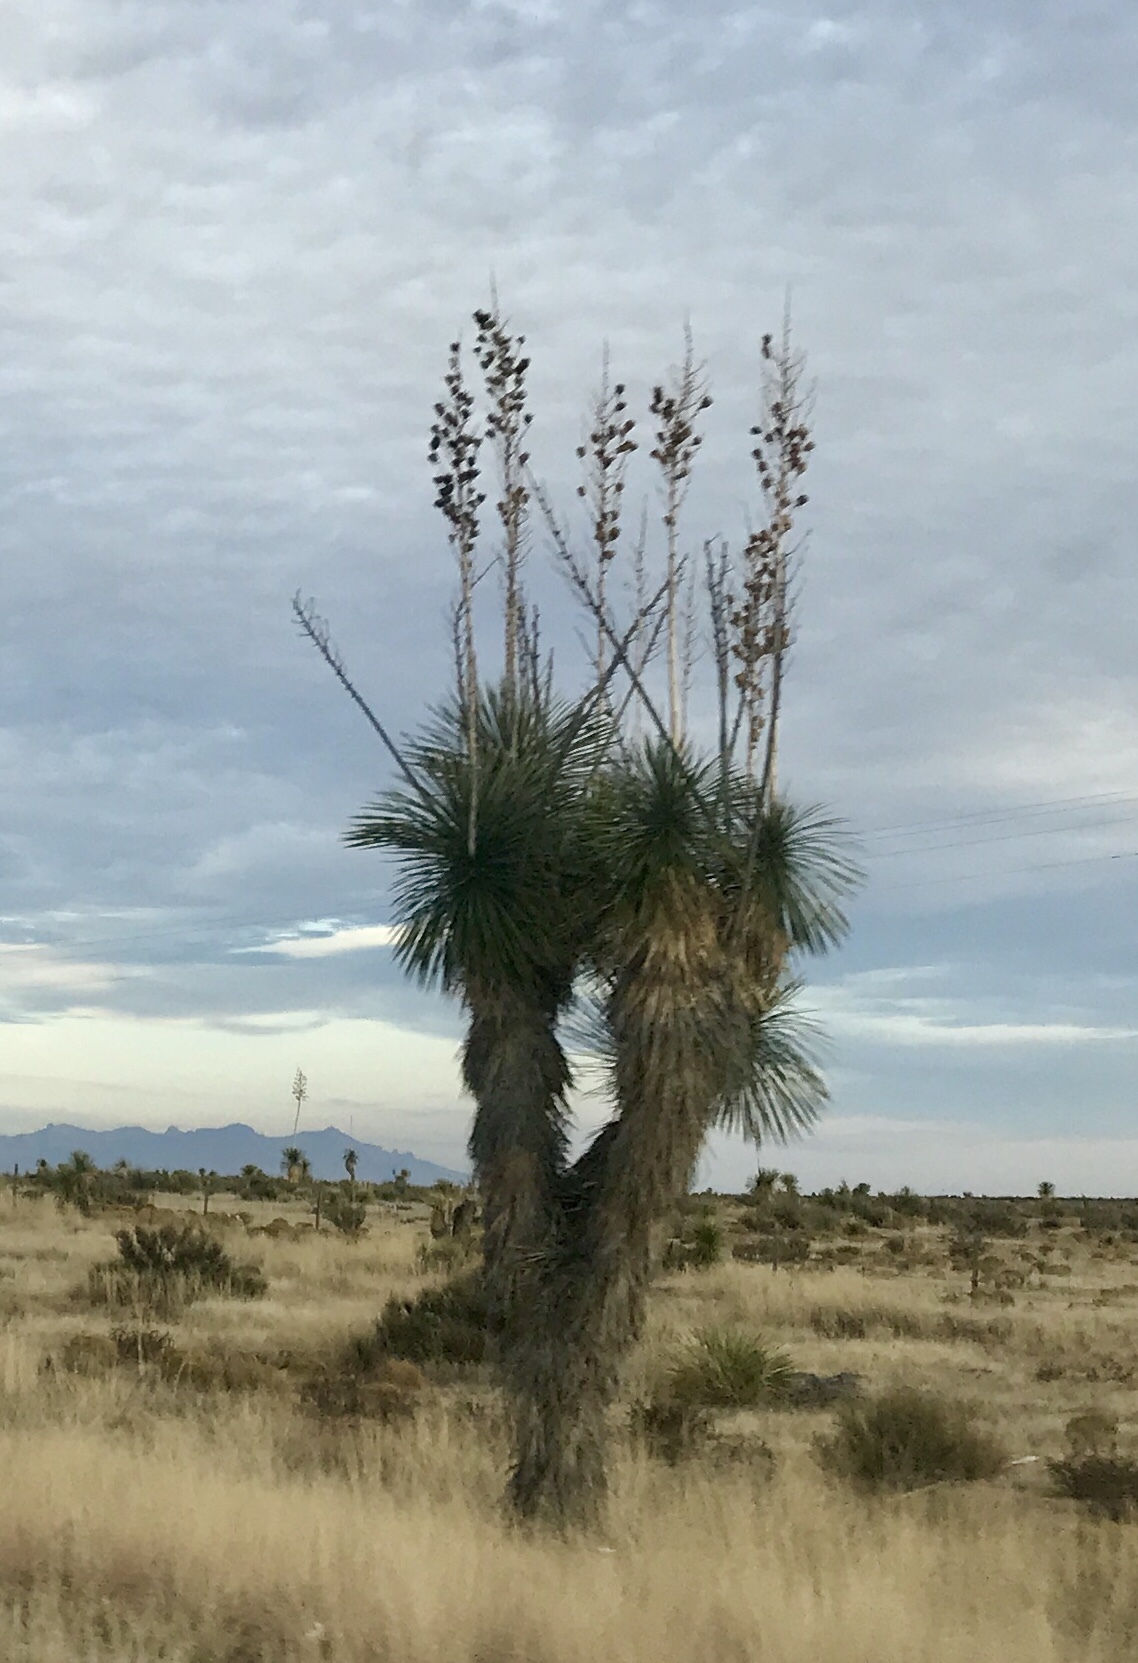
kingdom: Plantae
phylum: Tracheophyta
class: Liliopsida
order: Asparagales
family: Asparagaceae
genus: Yucca
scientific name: Yucca elata
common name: Palmella
